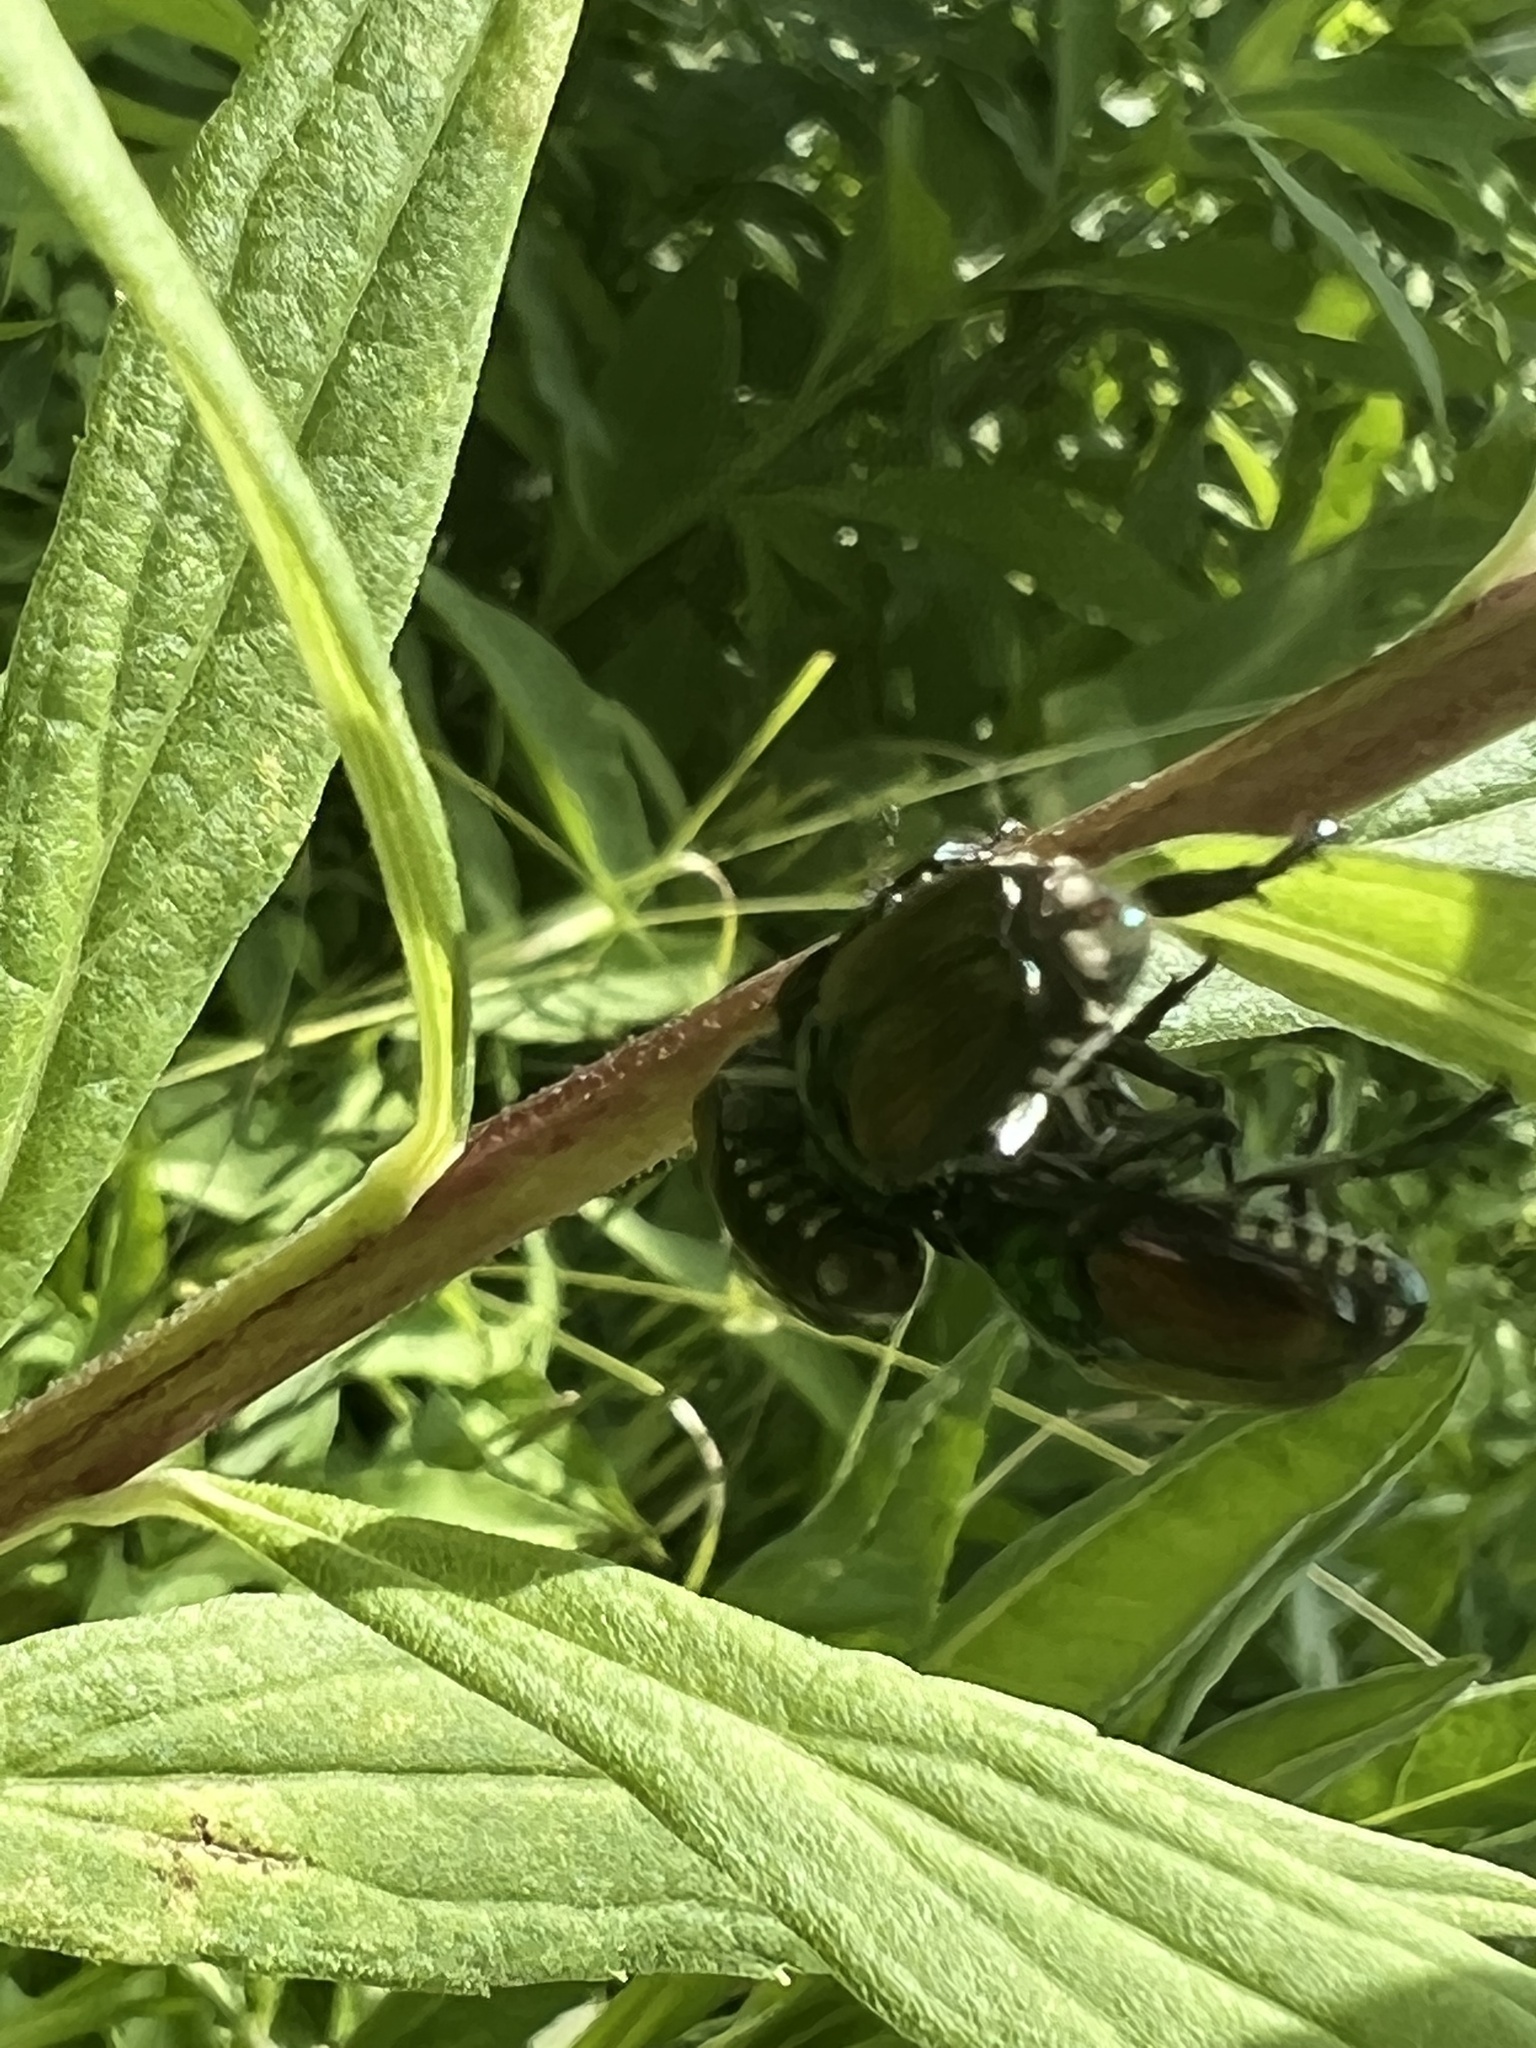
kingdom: Animalia
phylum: Arthropoda
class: Insecta
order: Coleoptera
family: Scarabaeidae
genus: Popillia
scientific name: Popillia japonica
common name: Japanese beetle
